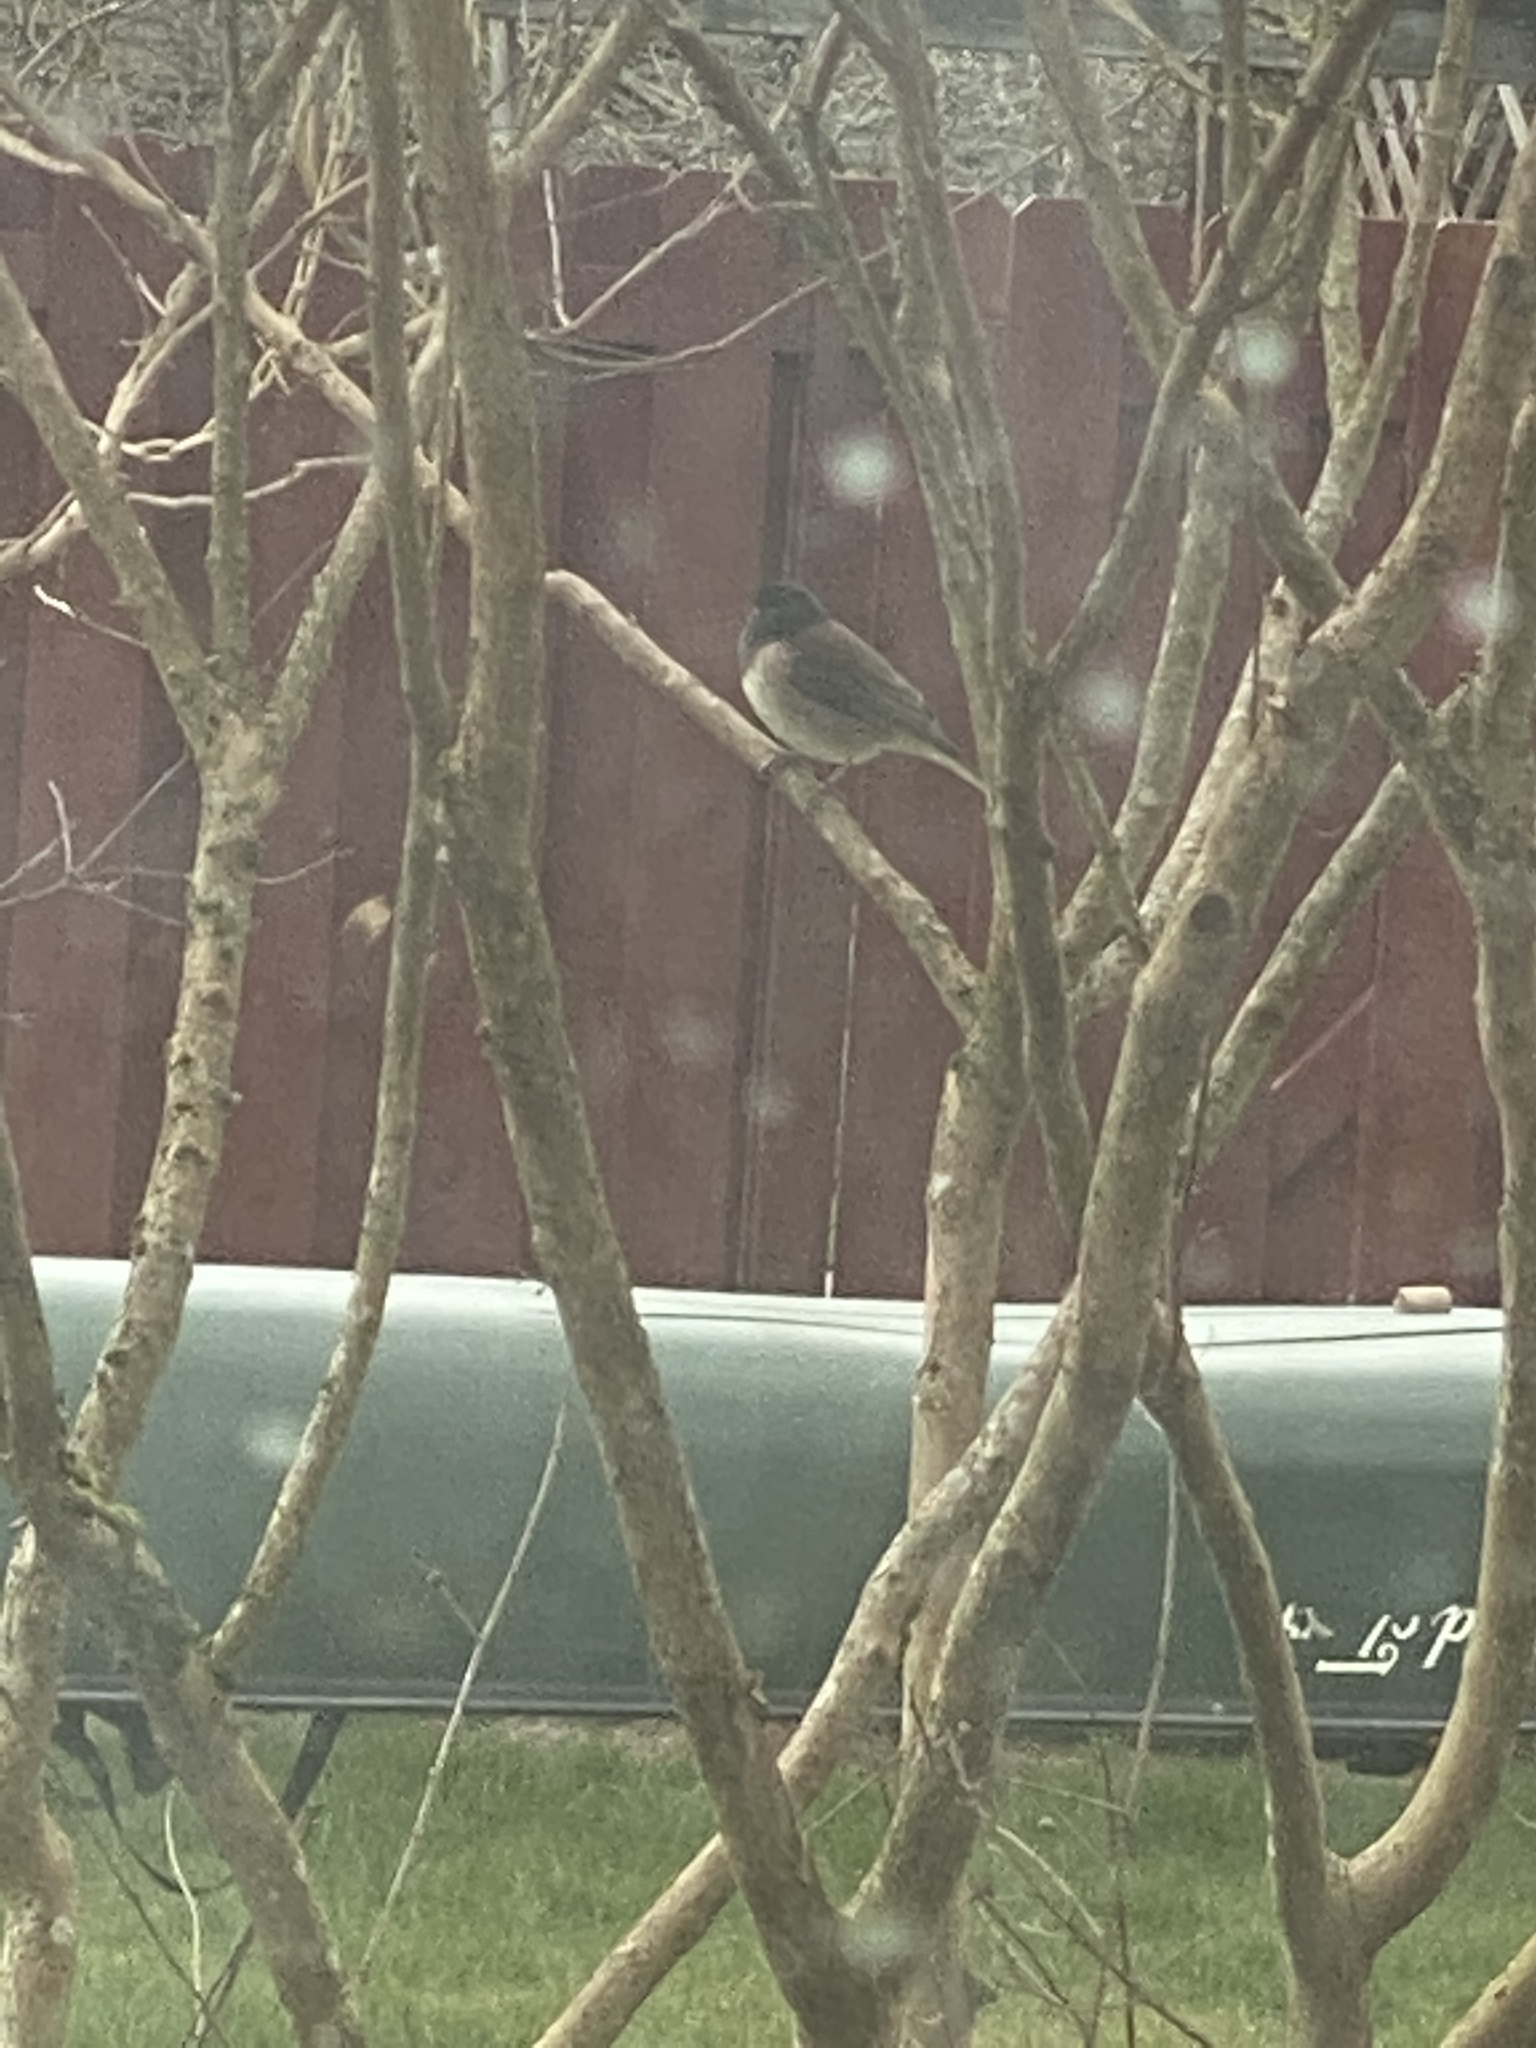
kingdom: Animalia
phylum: Chordata
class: Aves
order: Passeriformes
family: Passerellidae
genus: Junco
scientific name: Junco hyemalis
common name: Dark-eyed junco
